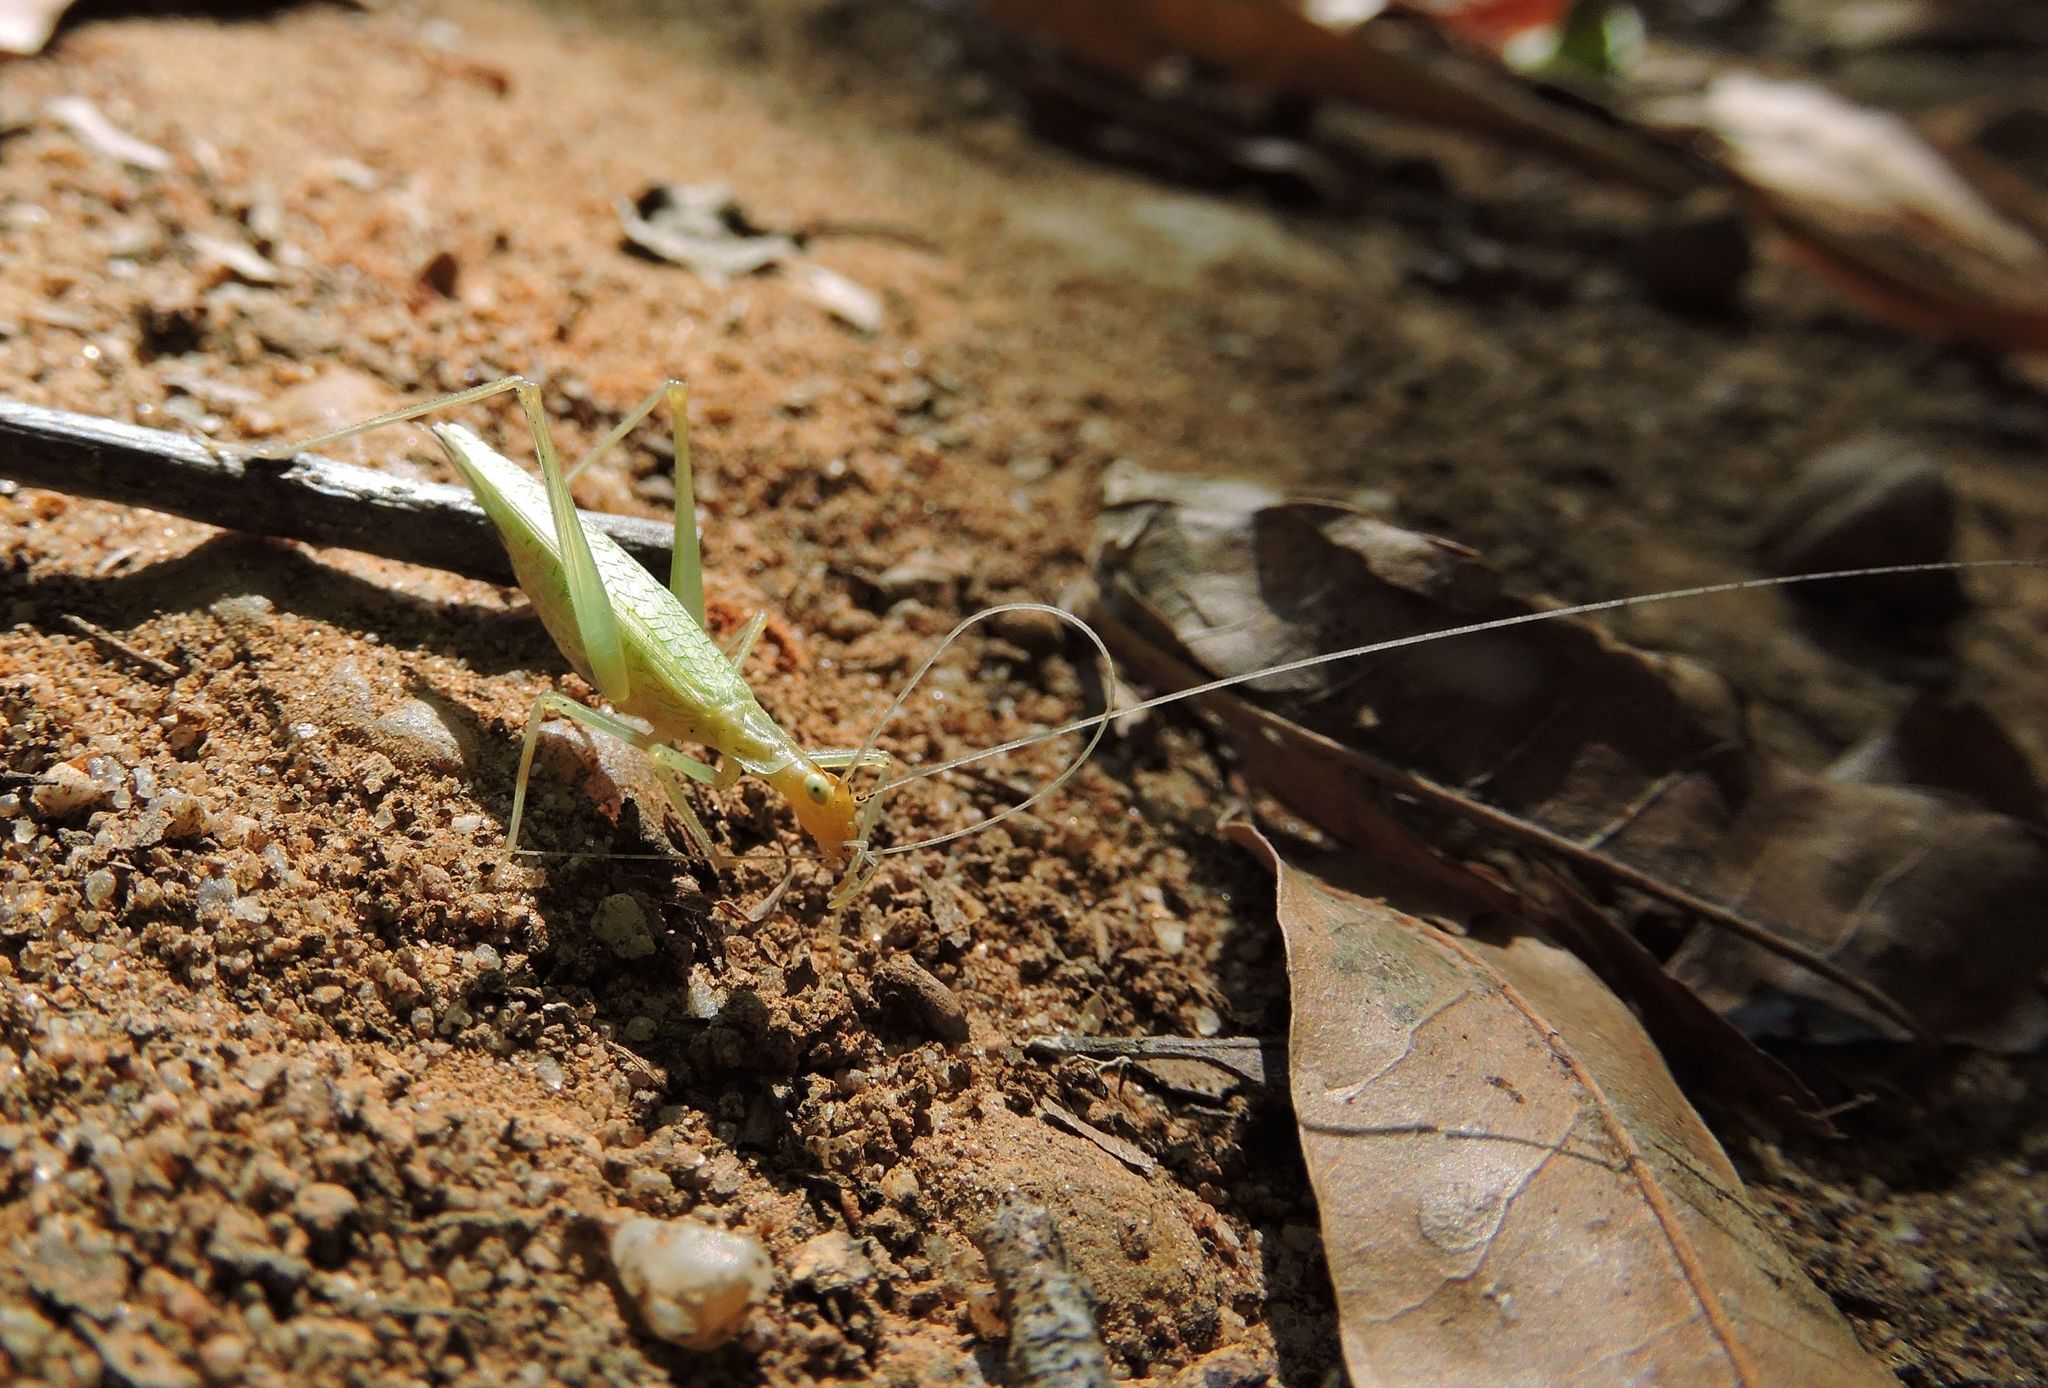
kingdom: Animalia
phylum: Arthropoda
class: Insecta
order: Orthoptera
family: Gryllidae
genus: Oecanthus
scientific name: Oecanthus niveus
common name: Narrow-winged tree cricket
